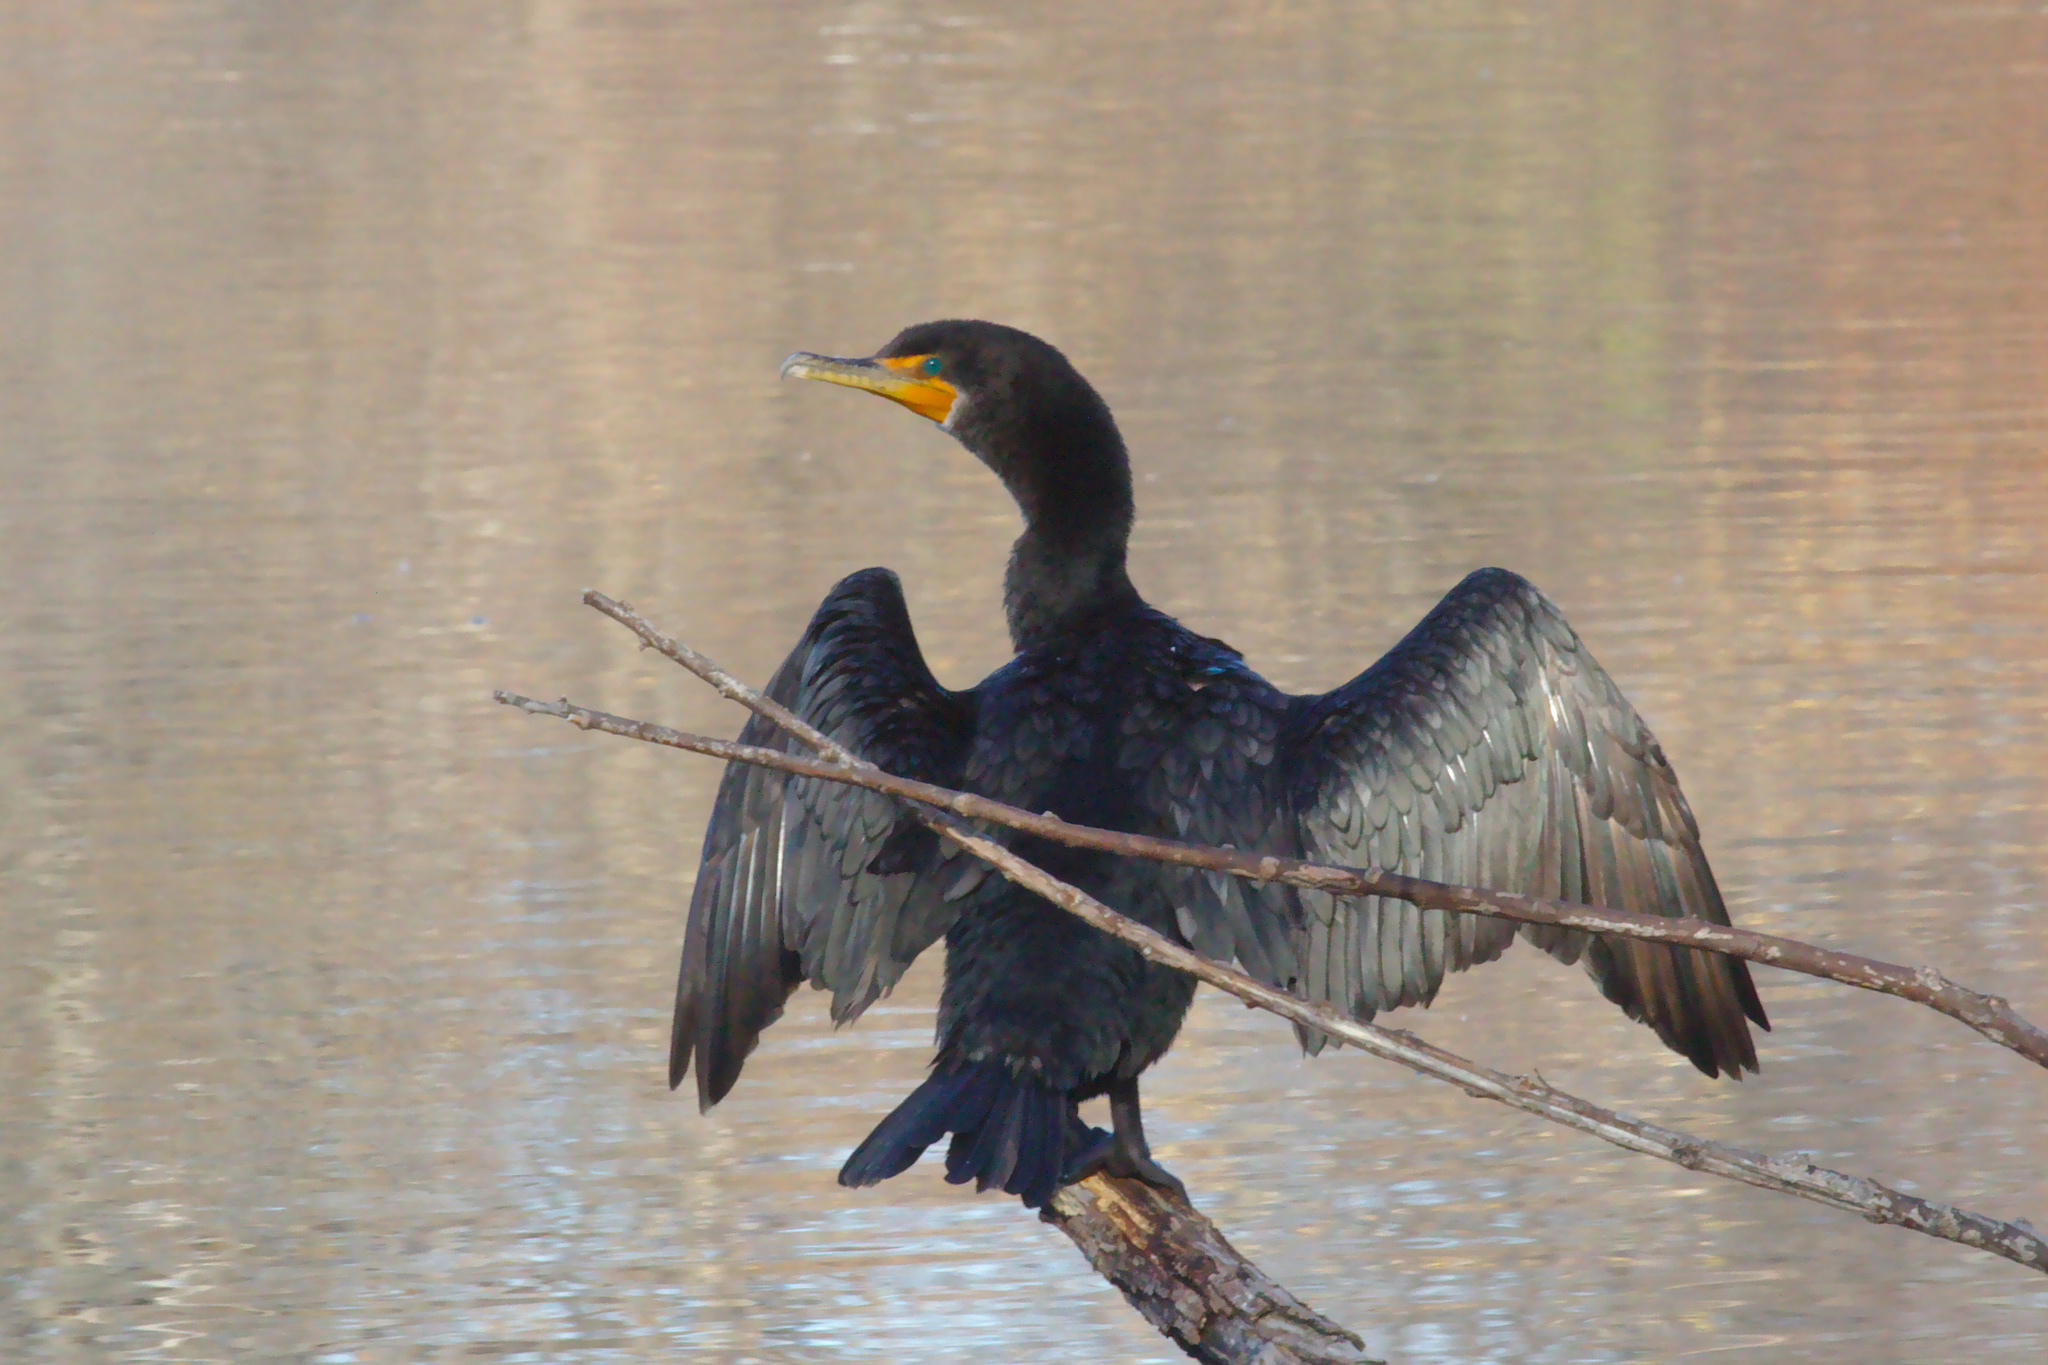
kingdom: Animalia
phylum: Chordata
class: Aves
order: Suliformes
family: Phalacrocoracidae
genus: Phalacrocorax
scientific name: Phalacrocorax auritus
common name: Double-crested cormorant
